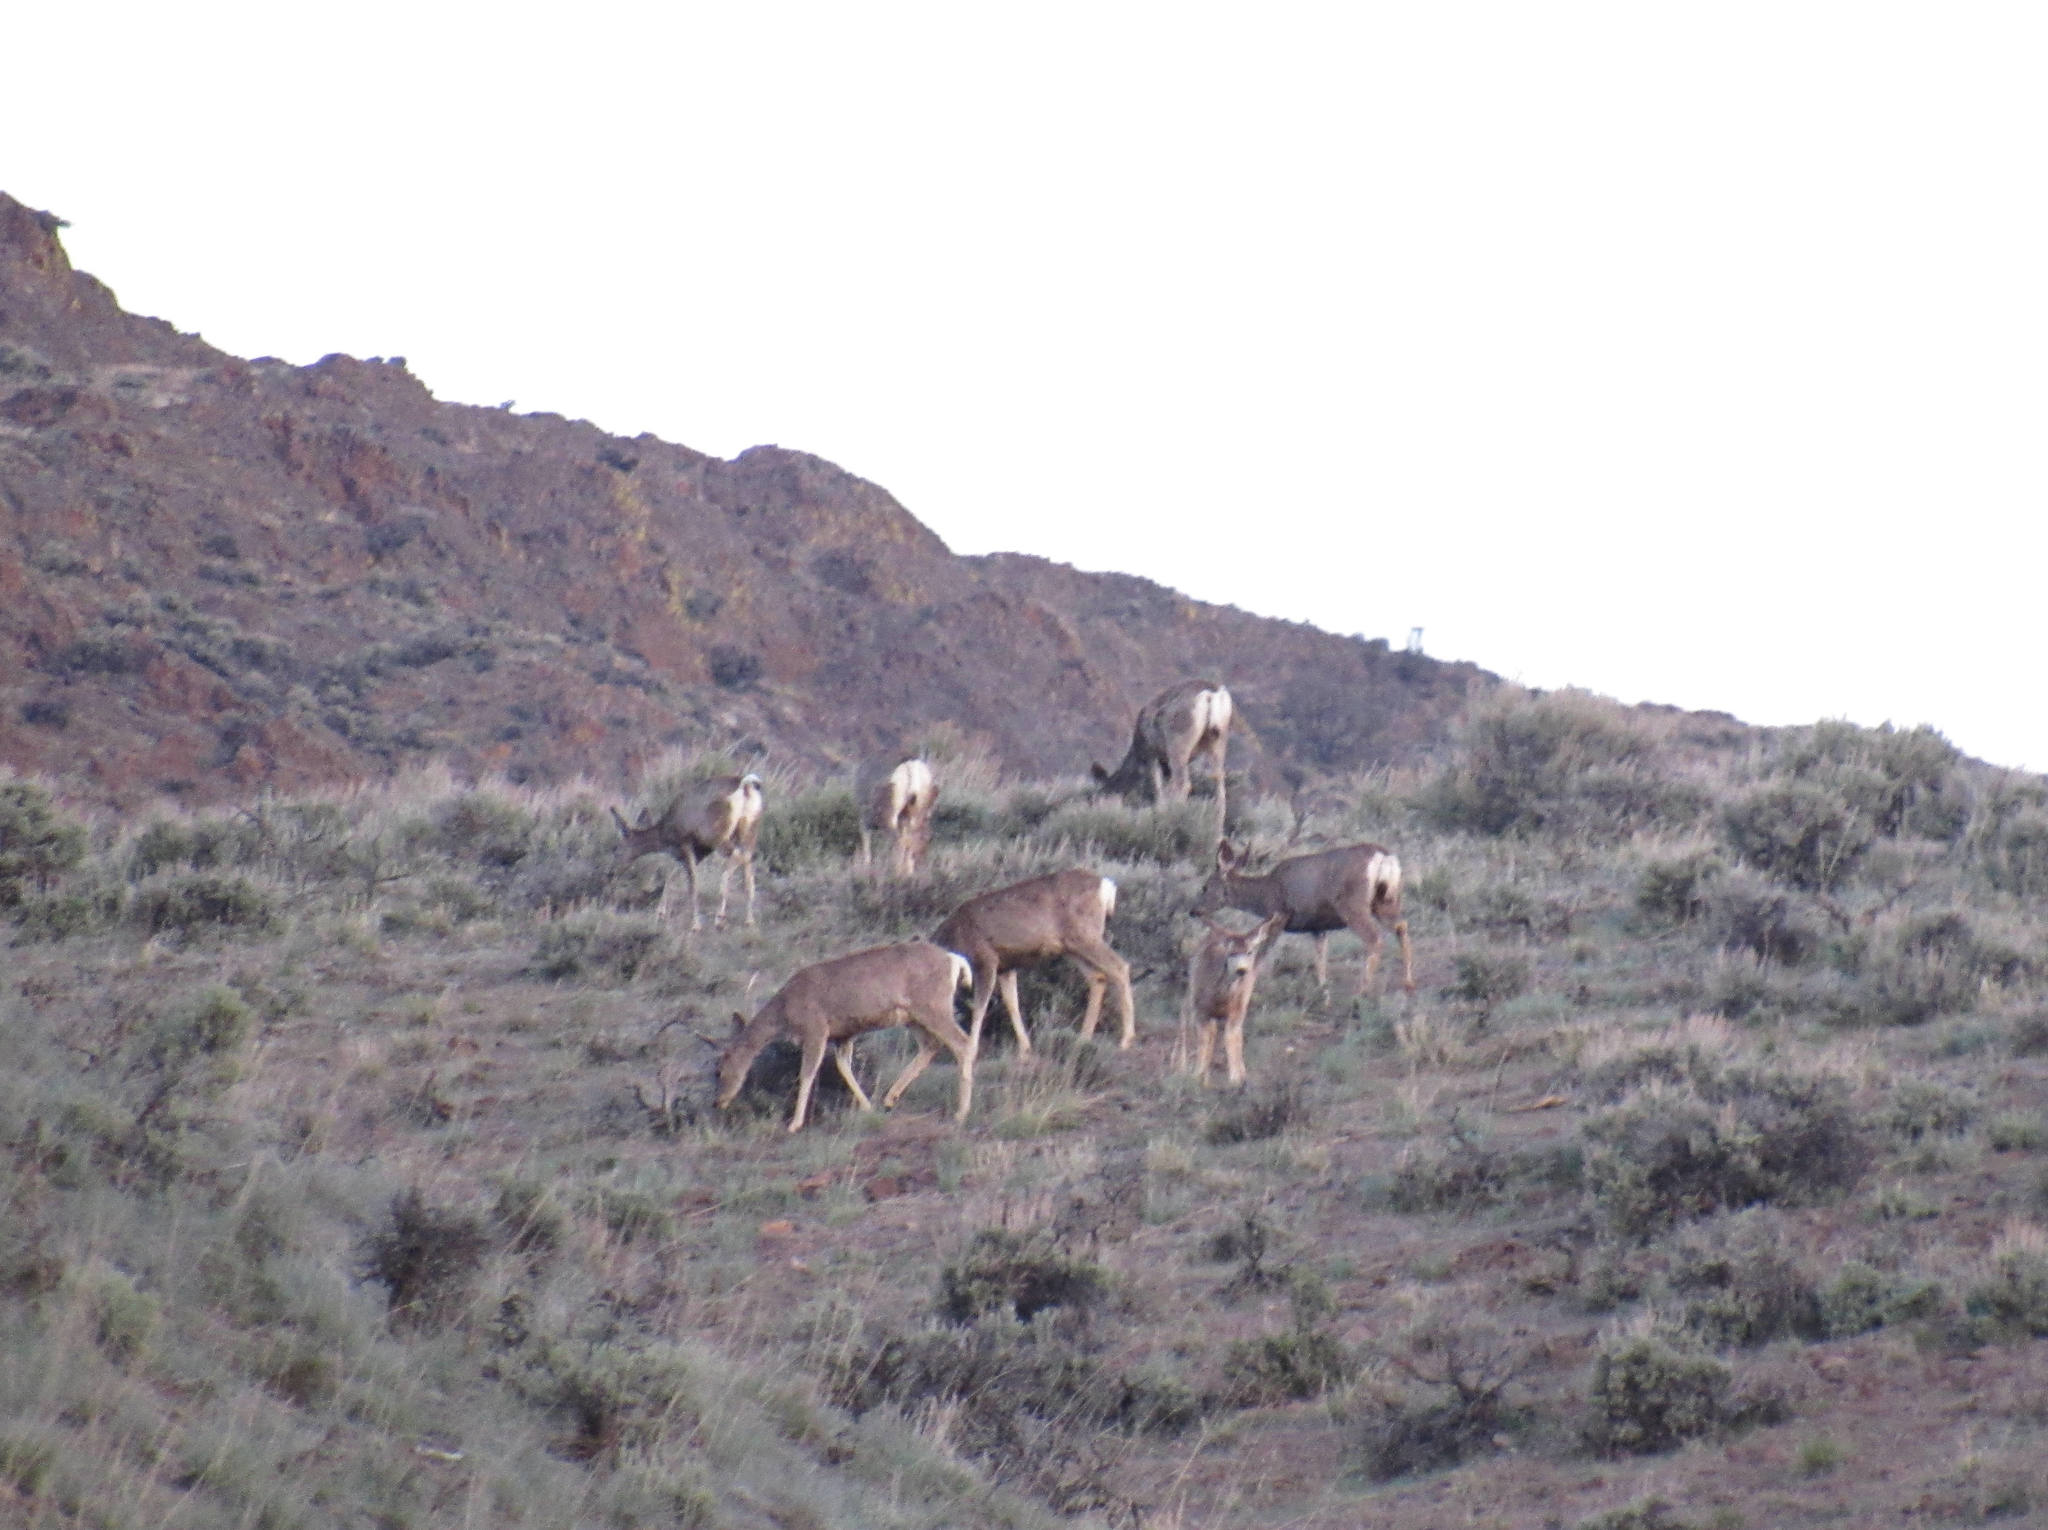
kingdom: Animalia
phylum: Chordata
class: Mammalia
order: Artiodactyla
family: Cervidae
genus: Odocoileus
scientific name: Odocoileus hemionus
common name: Mule deer
